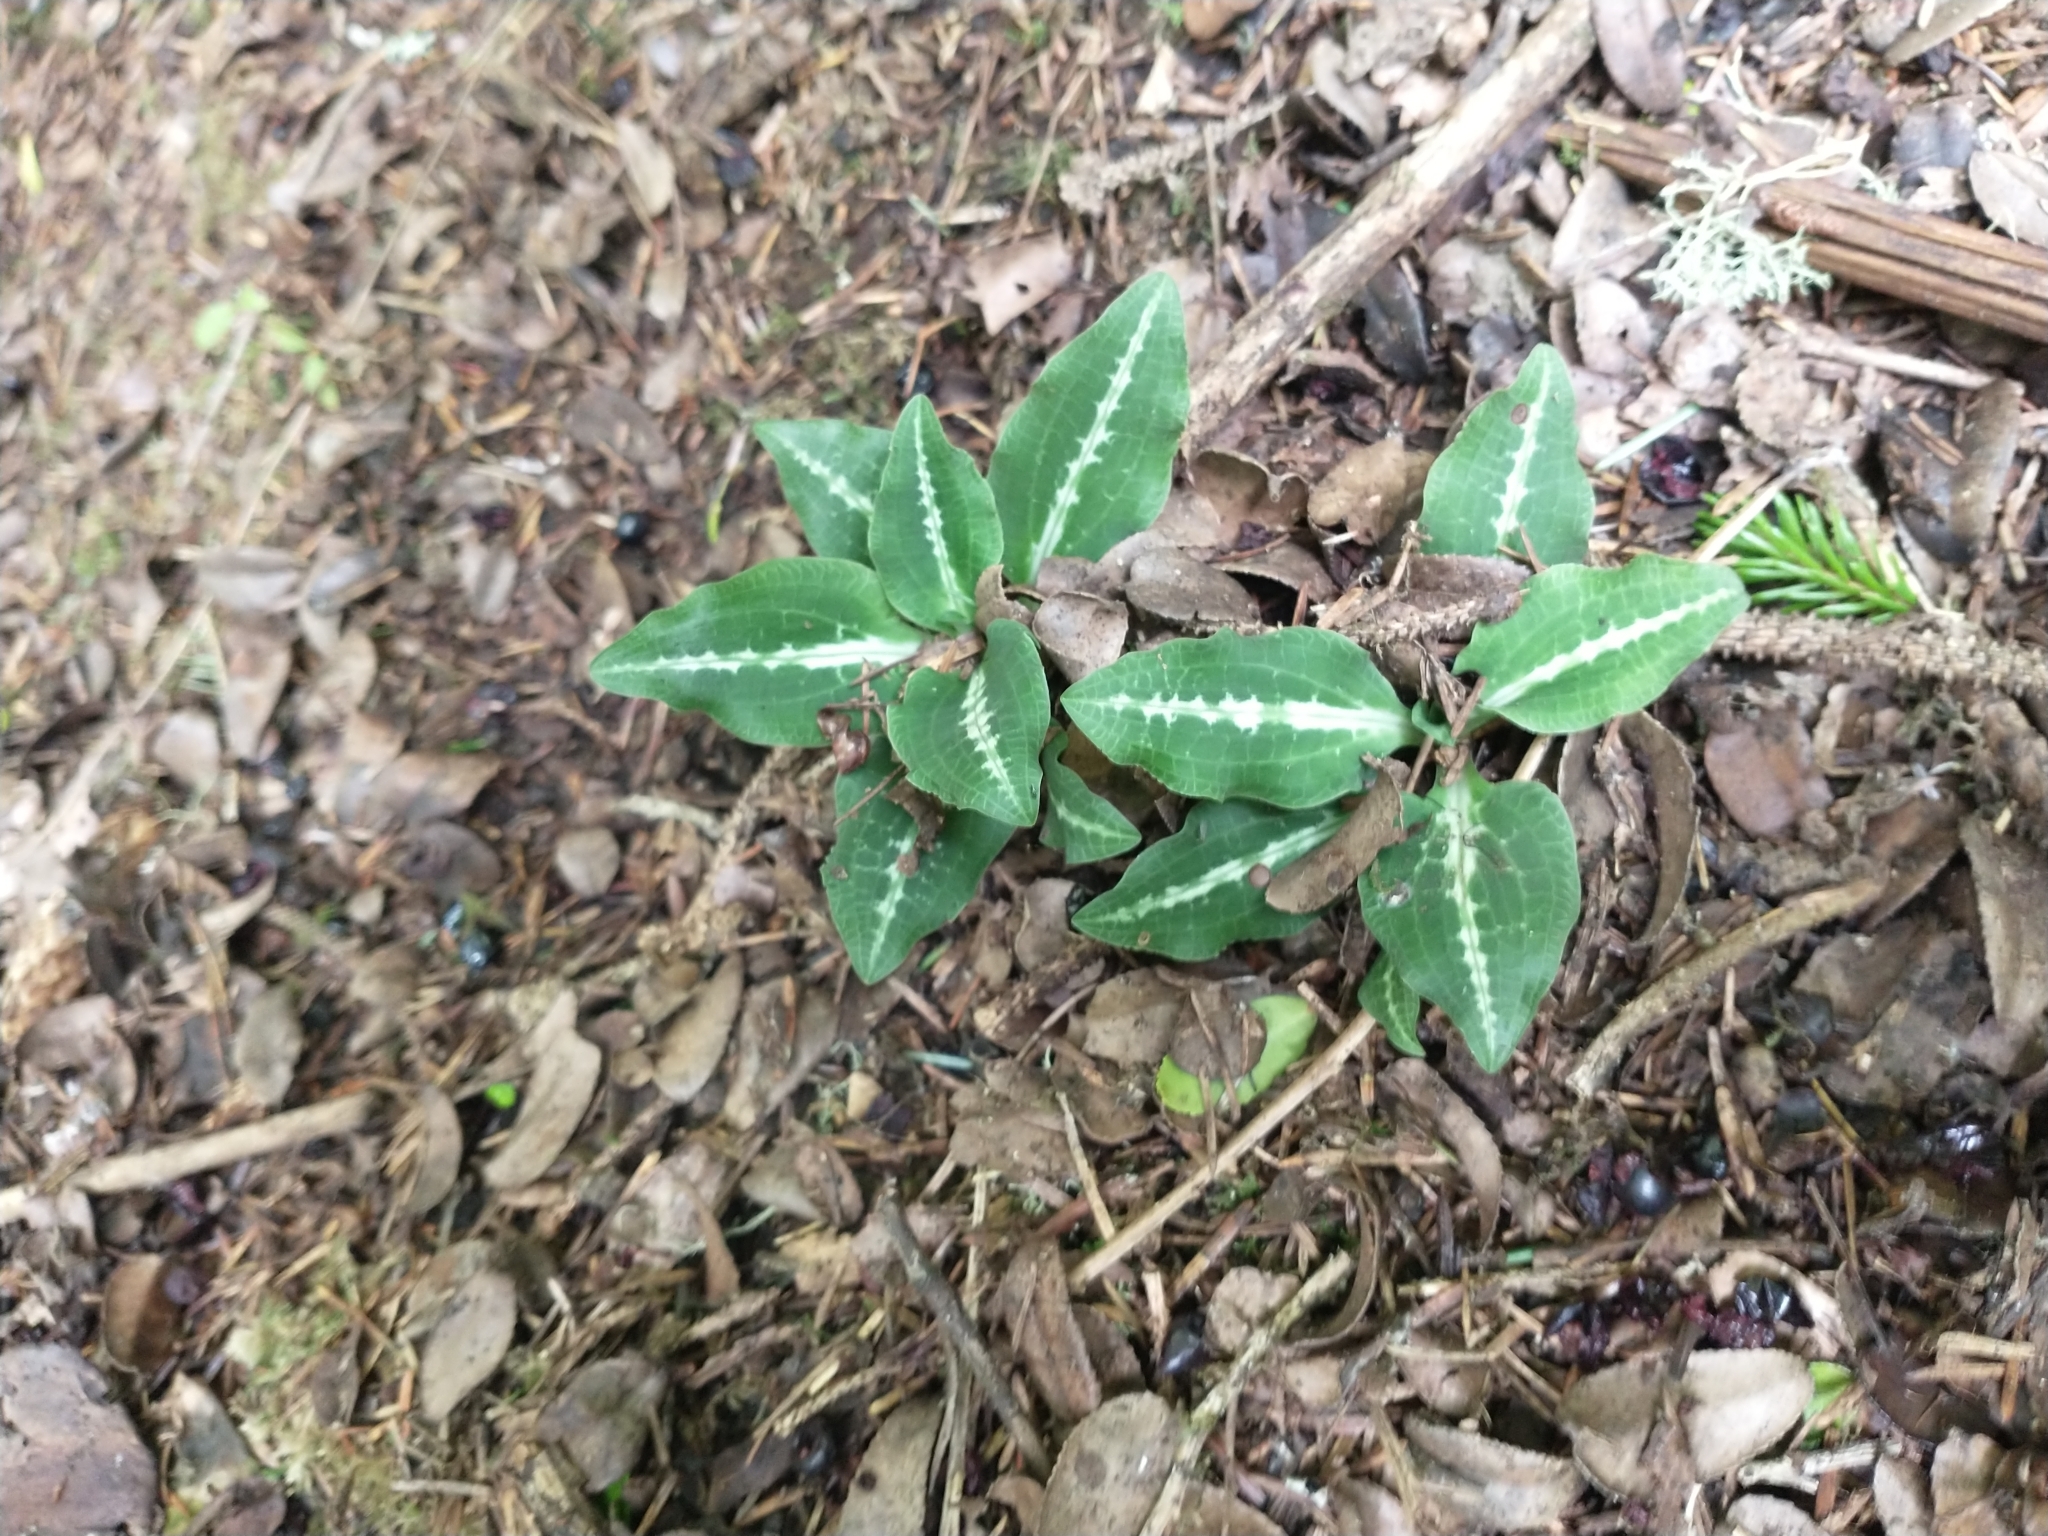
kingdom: Plantae
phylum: Tracheophyta
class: Liliopsida
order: Asparagales
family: Orchidaceae
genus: Goodyera
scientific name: Goodyera oblongifolia
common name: Giant rattlesnake-plantain
